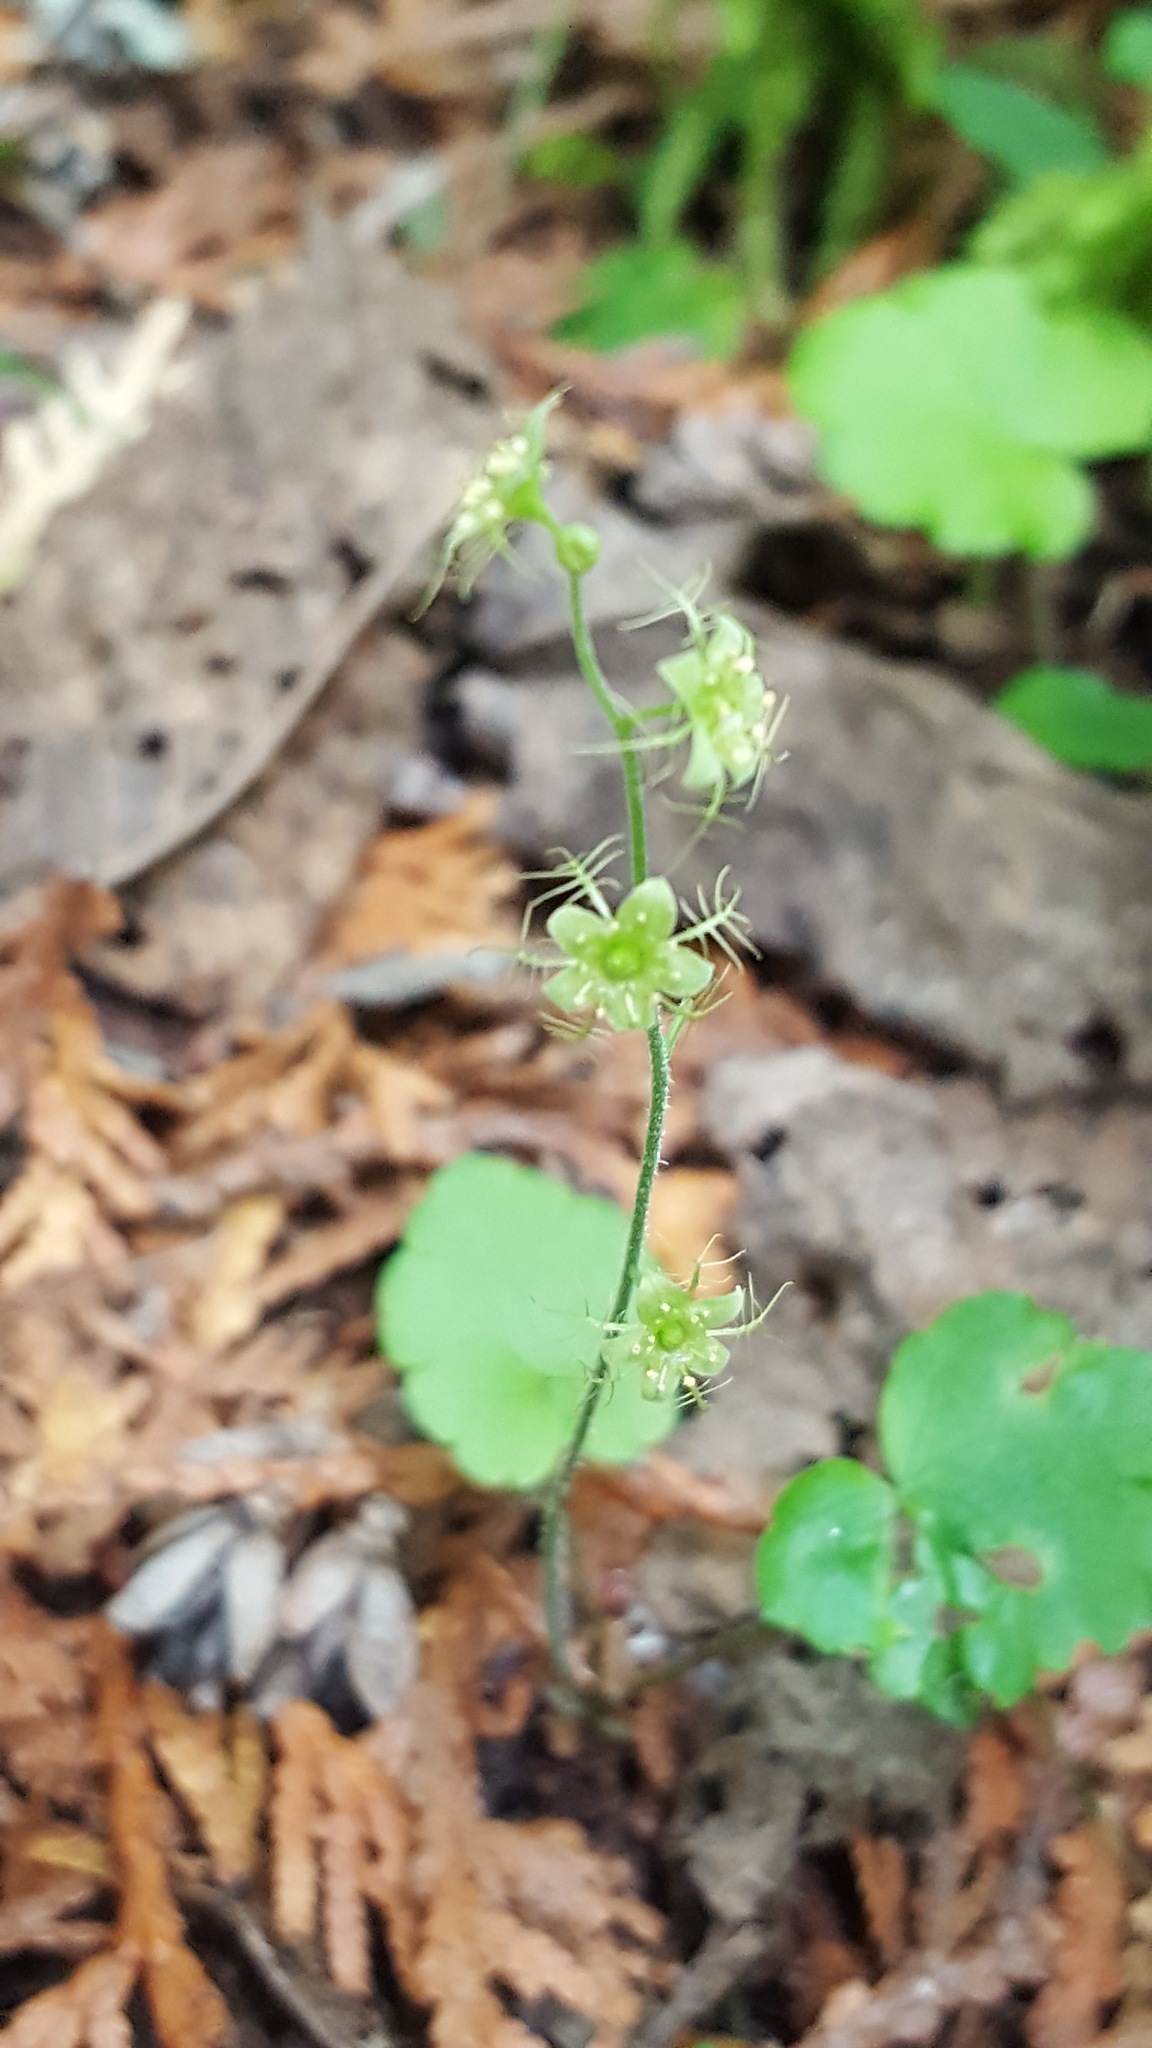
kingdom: Plantae
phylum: Tracheophyta
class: Magnoliopsida
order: Saxifragales
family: Saxifragaceae
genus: Mitella
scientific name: Mitella nuda
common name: Bare-stemmed bishop's-cap
